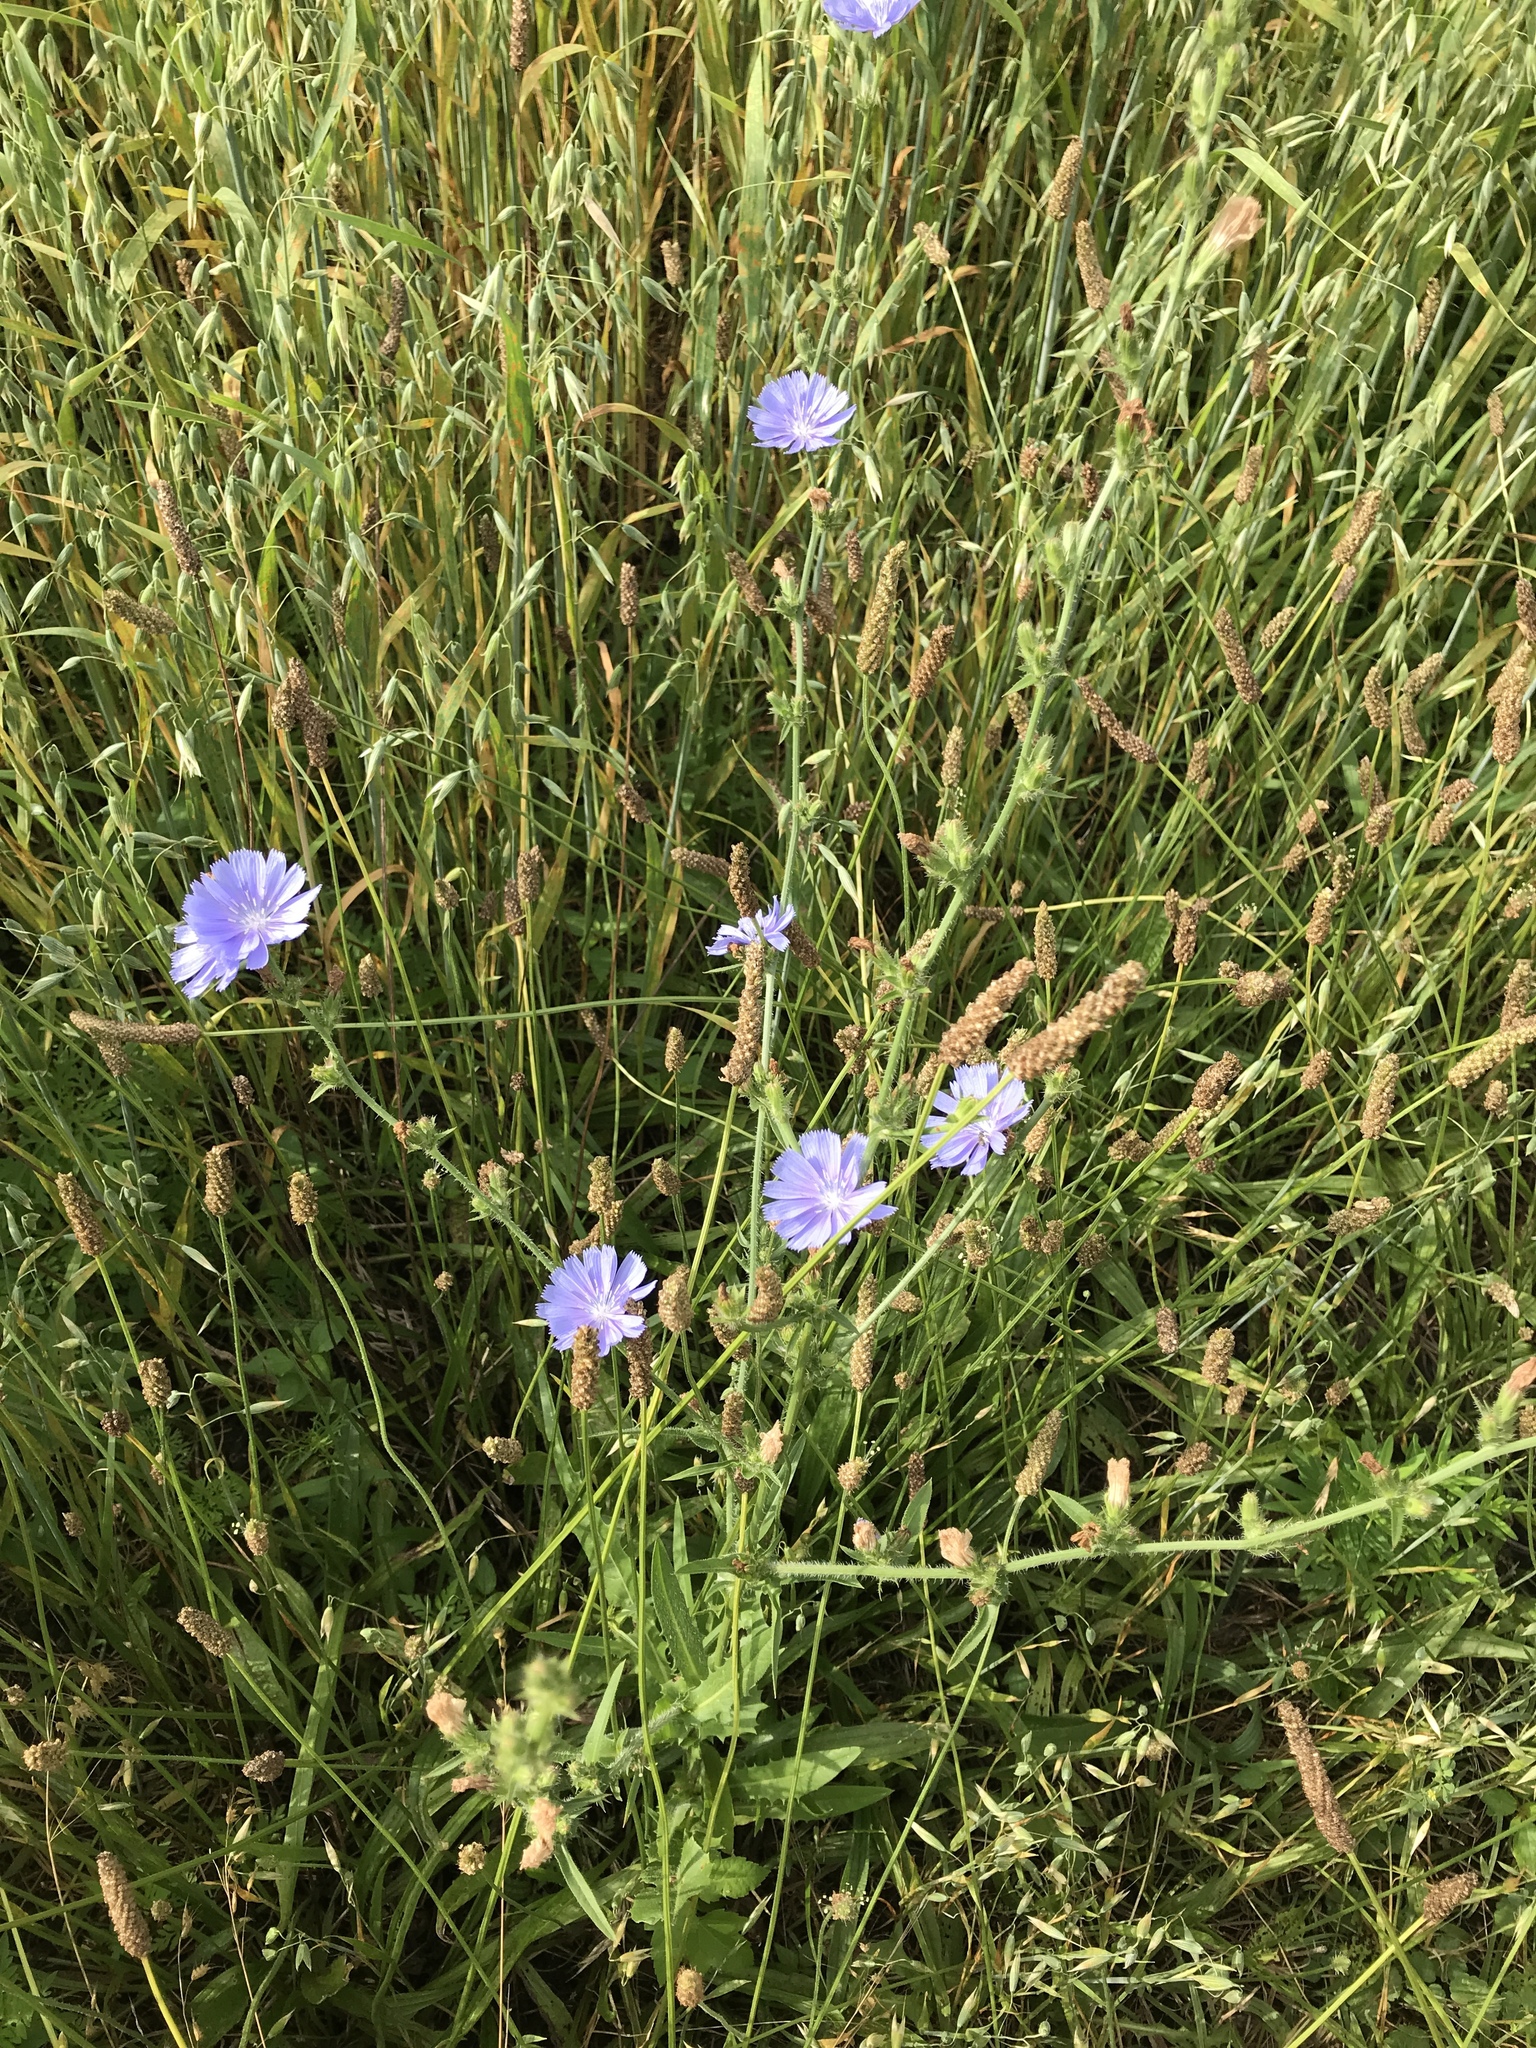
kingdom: Plantae
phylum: Tracheophyta
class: Magnoliopsida
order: Asterales
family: Asteraceae
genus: Cichorium
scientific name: Cichorium intybus
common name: Chicory
